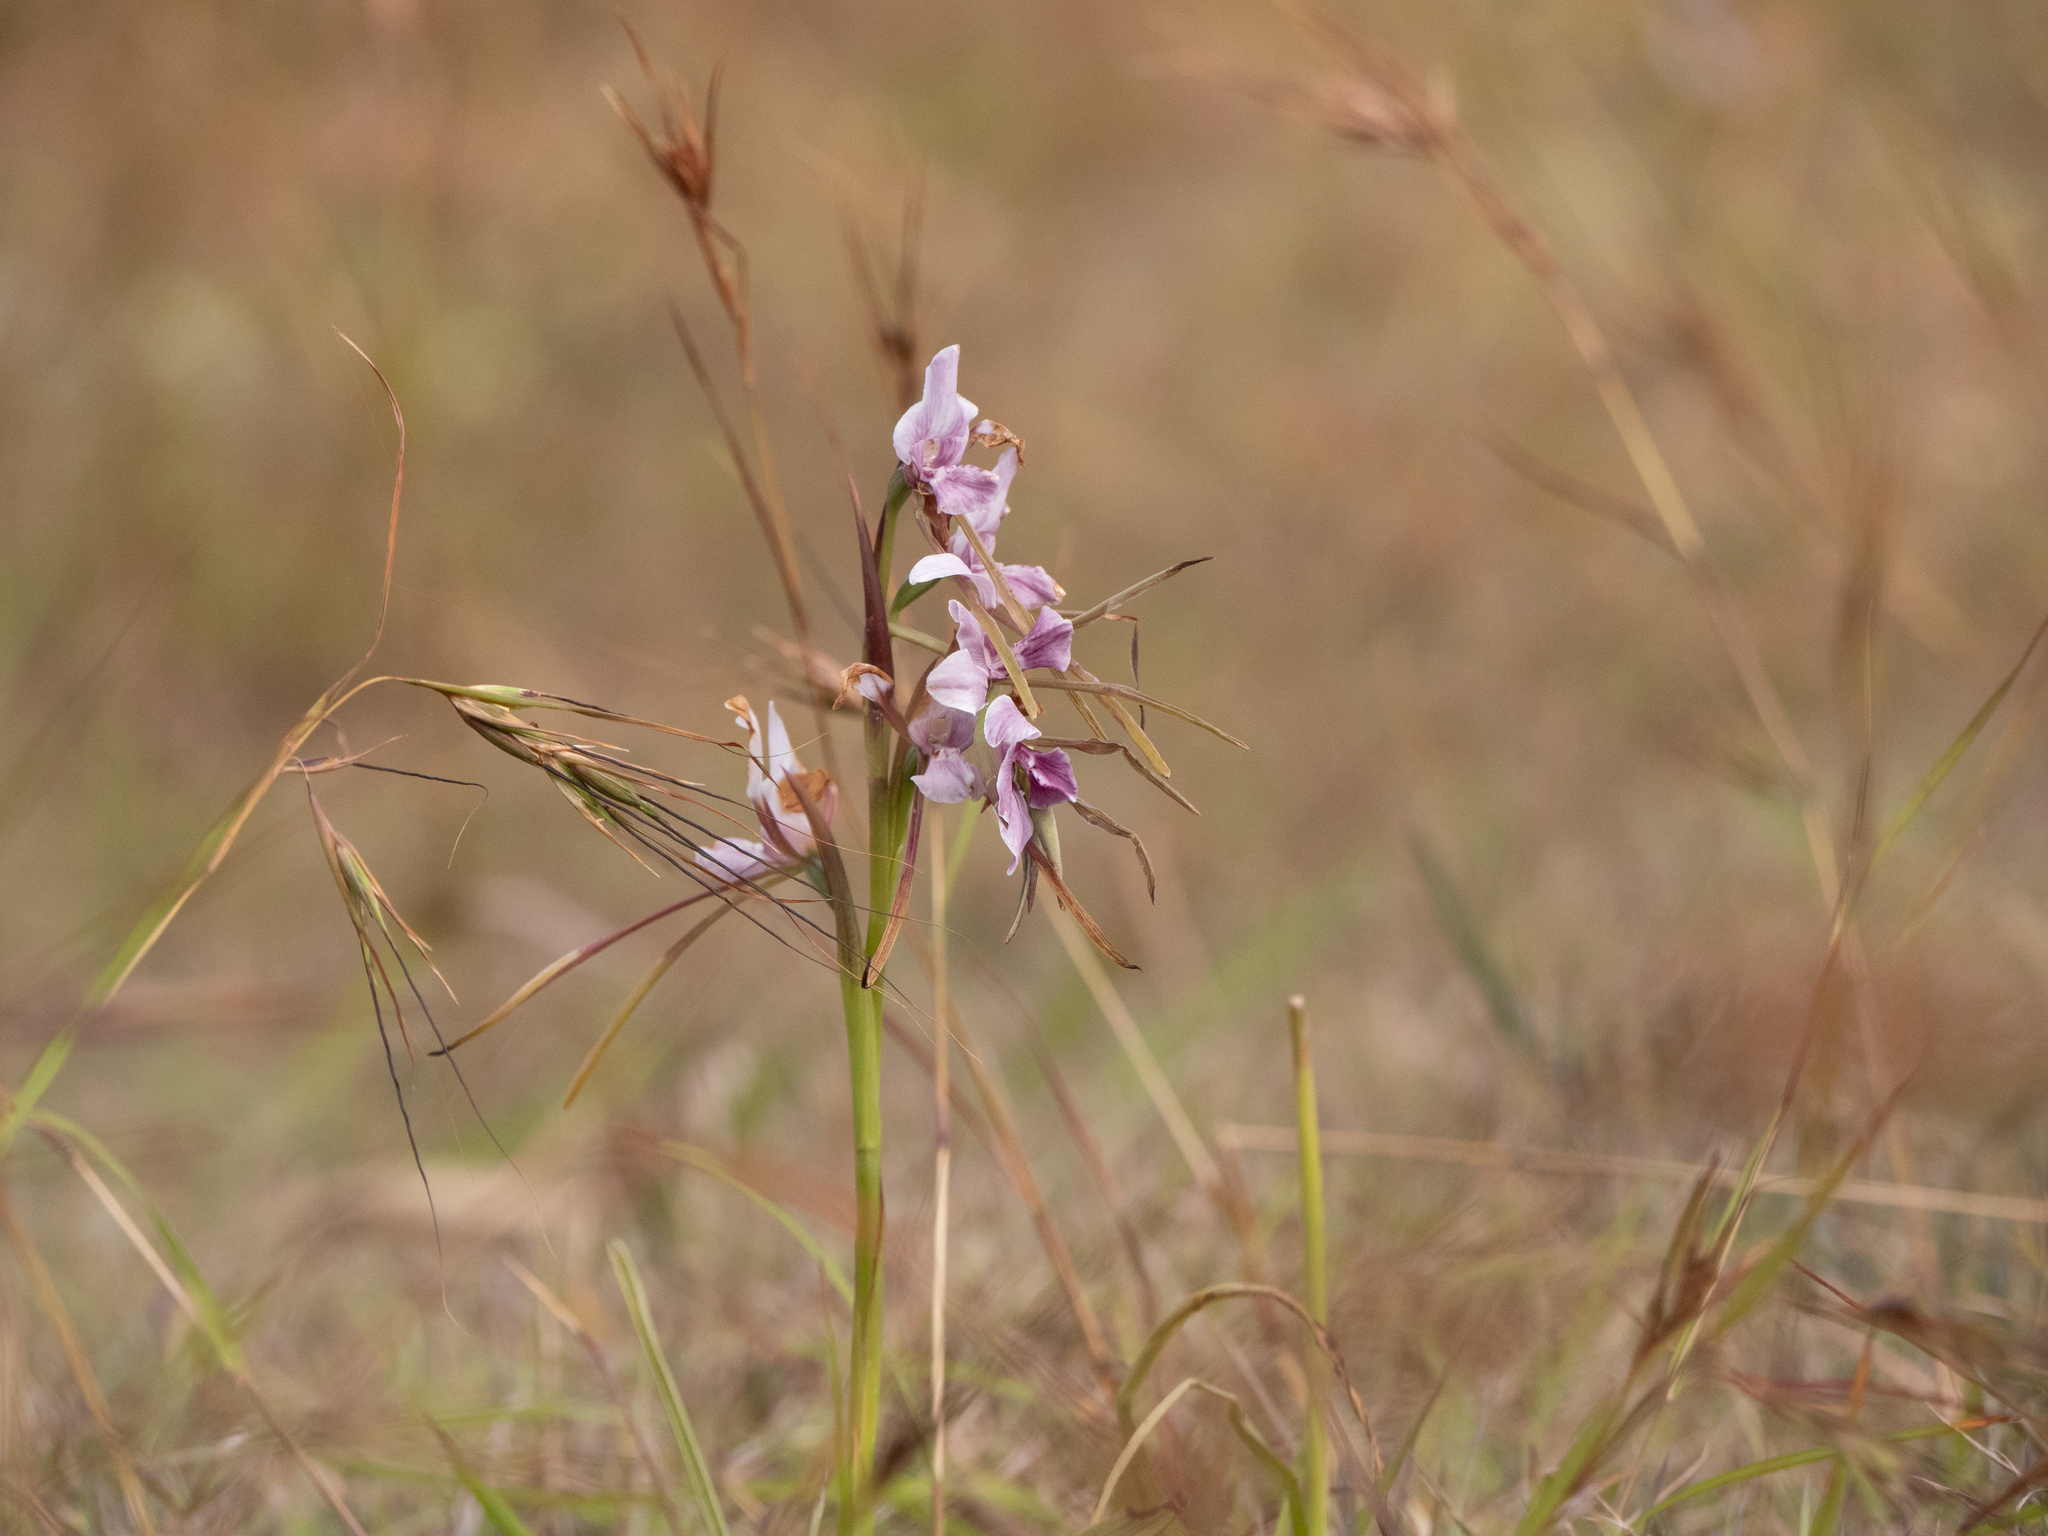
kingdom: Plantae
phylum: Tracheophyta
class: Liliopsida
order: Asparagales
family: Orchidaceae
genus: Diuris
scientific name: Diuris punctata
